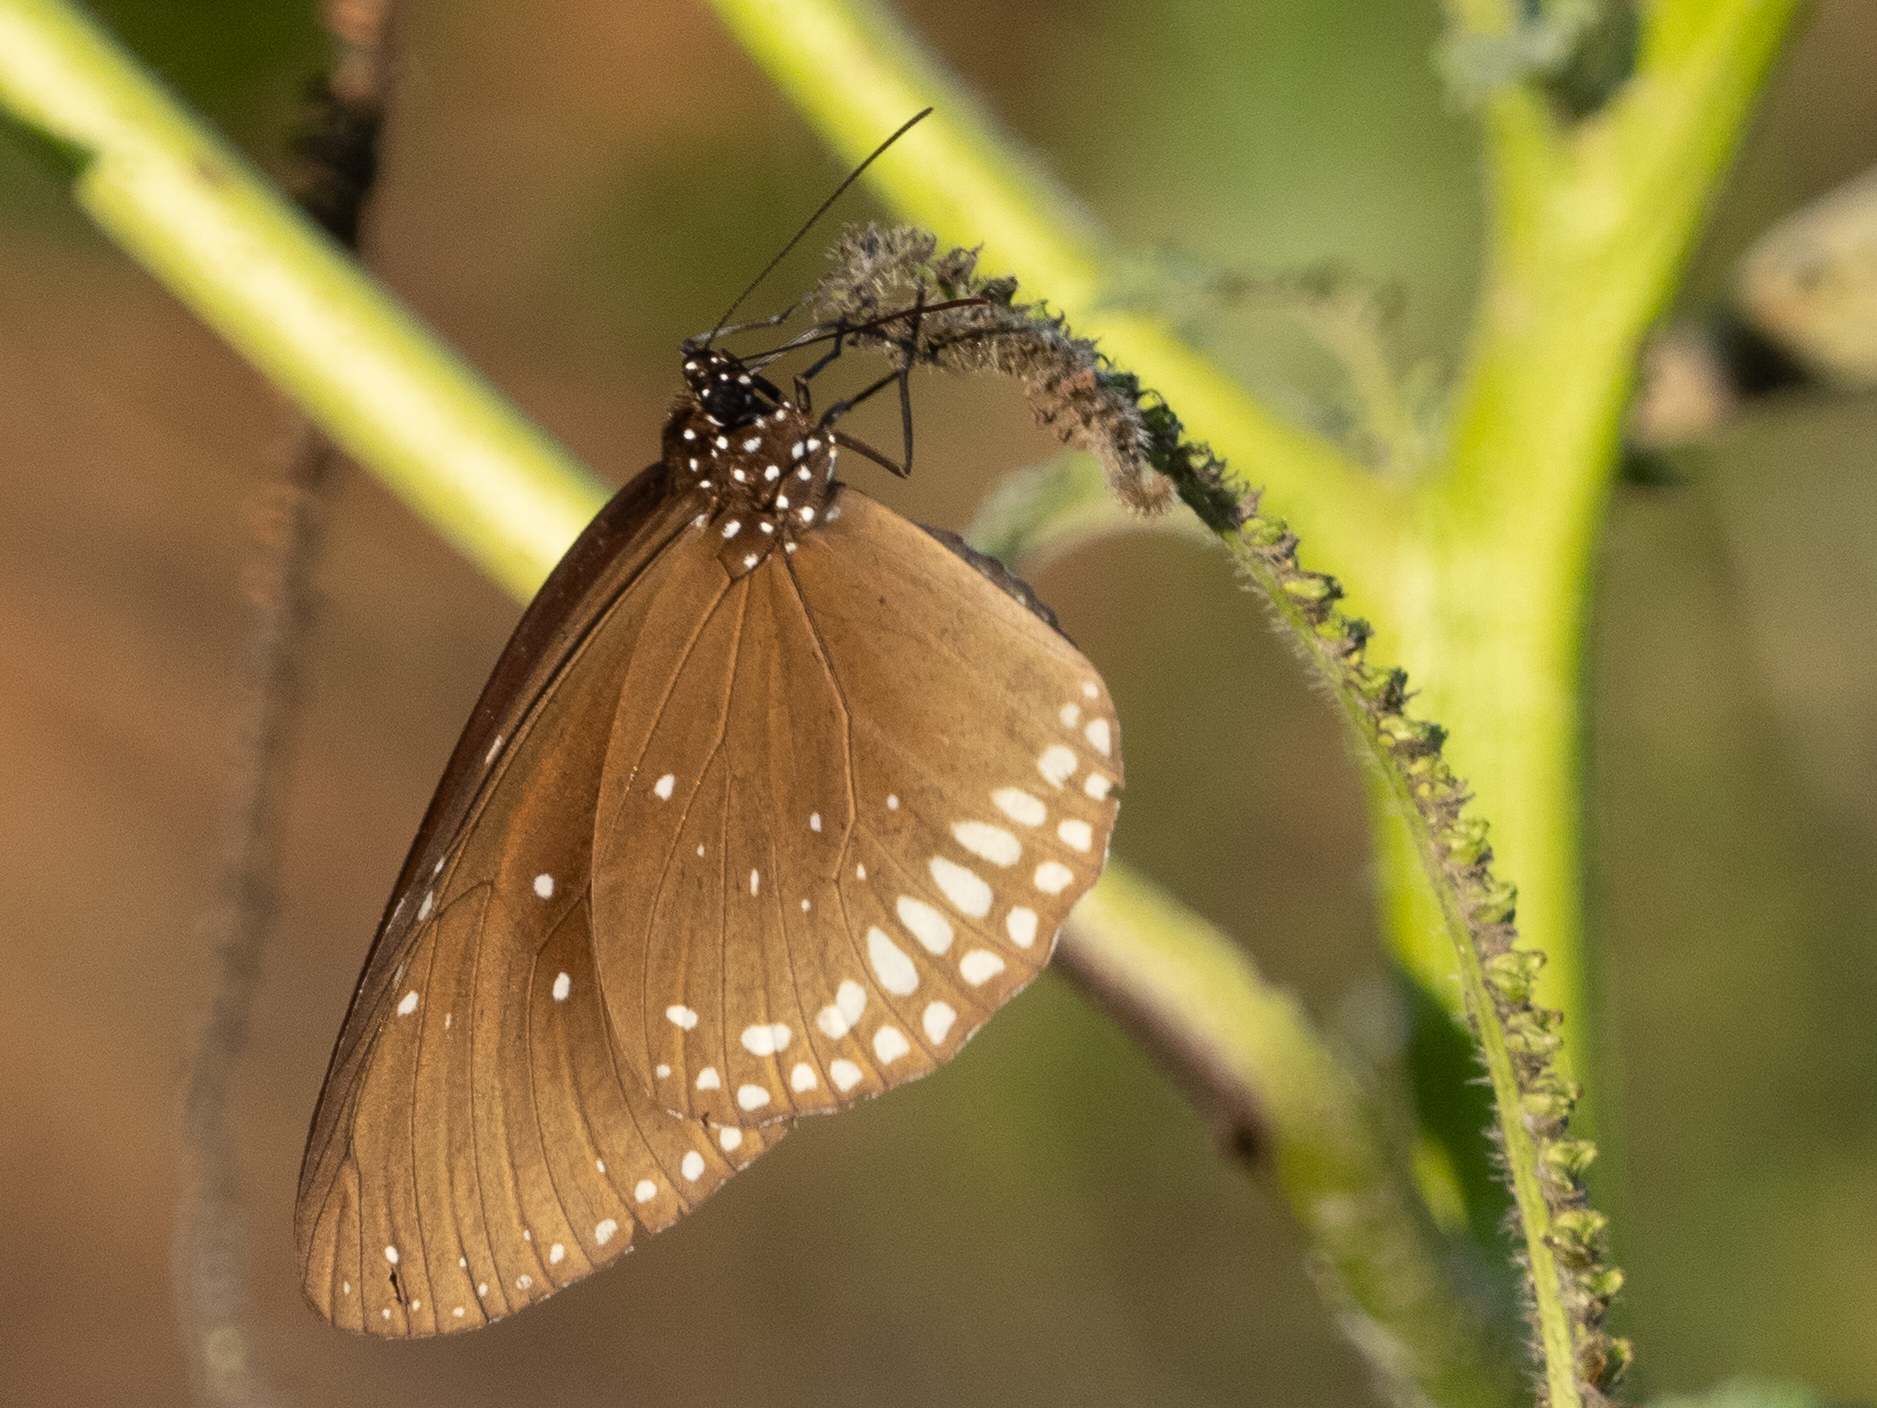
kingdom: Animalia
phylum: Arthropoda
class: Insecta
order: Lepidoptera
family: Nymphalidae
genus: Euploea
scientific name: Euploea sylvester
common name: Double-branded crow butterfly
